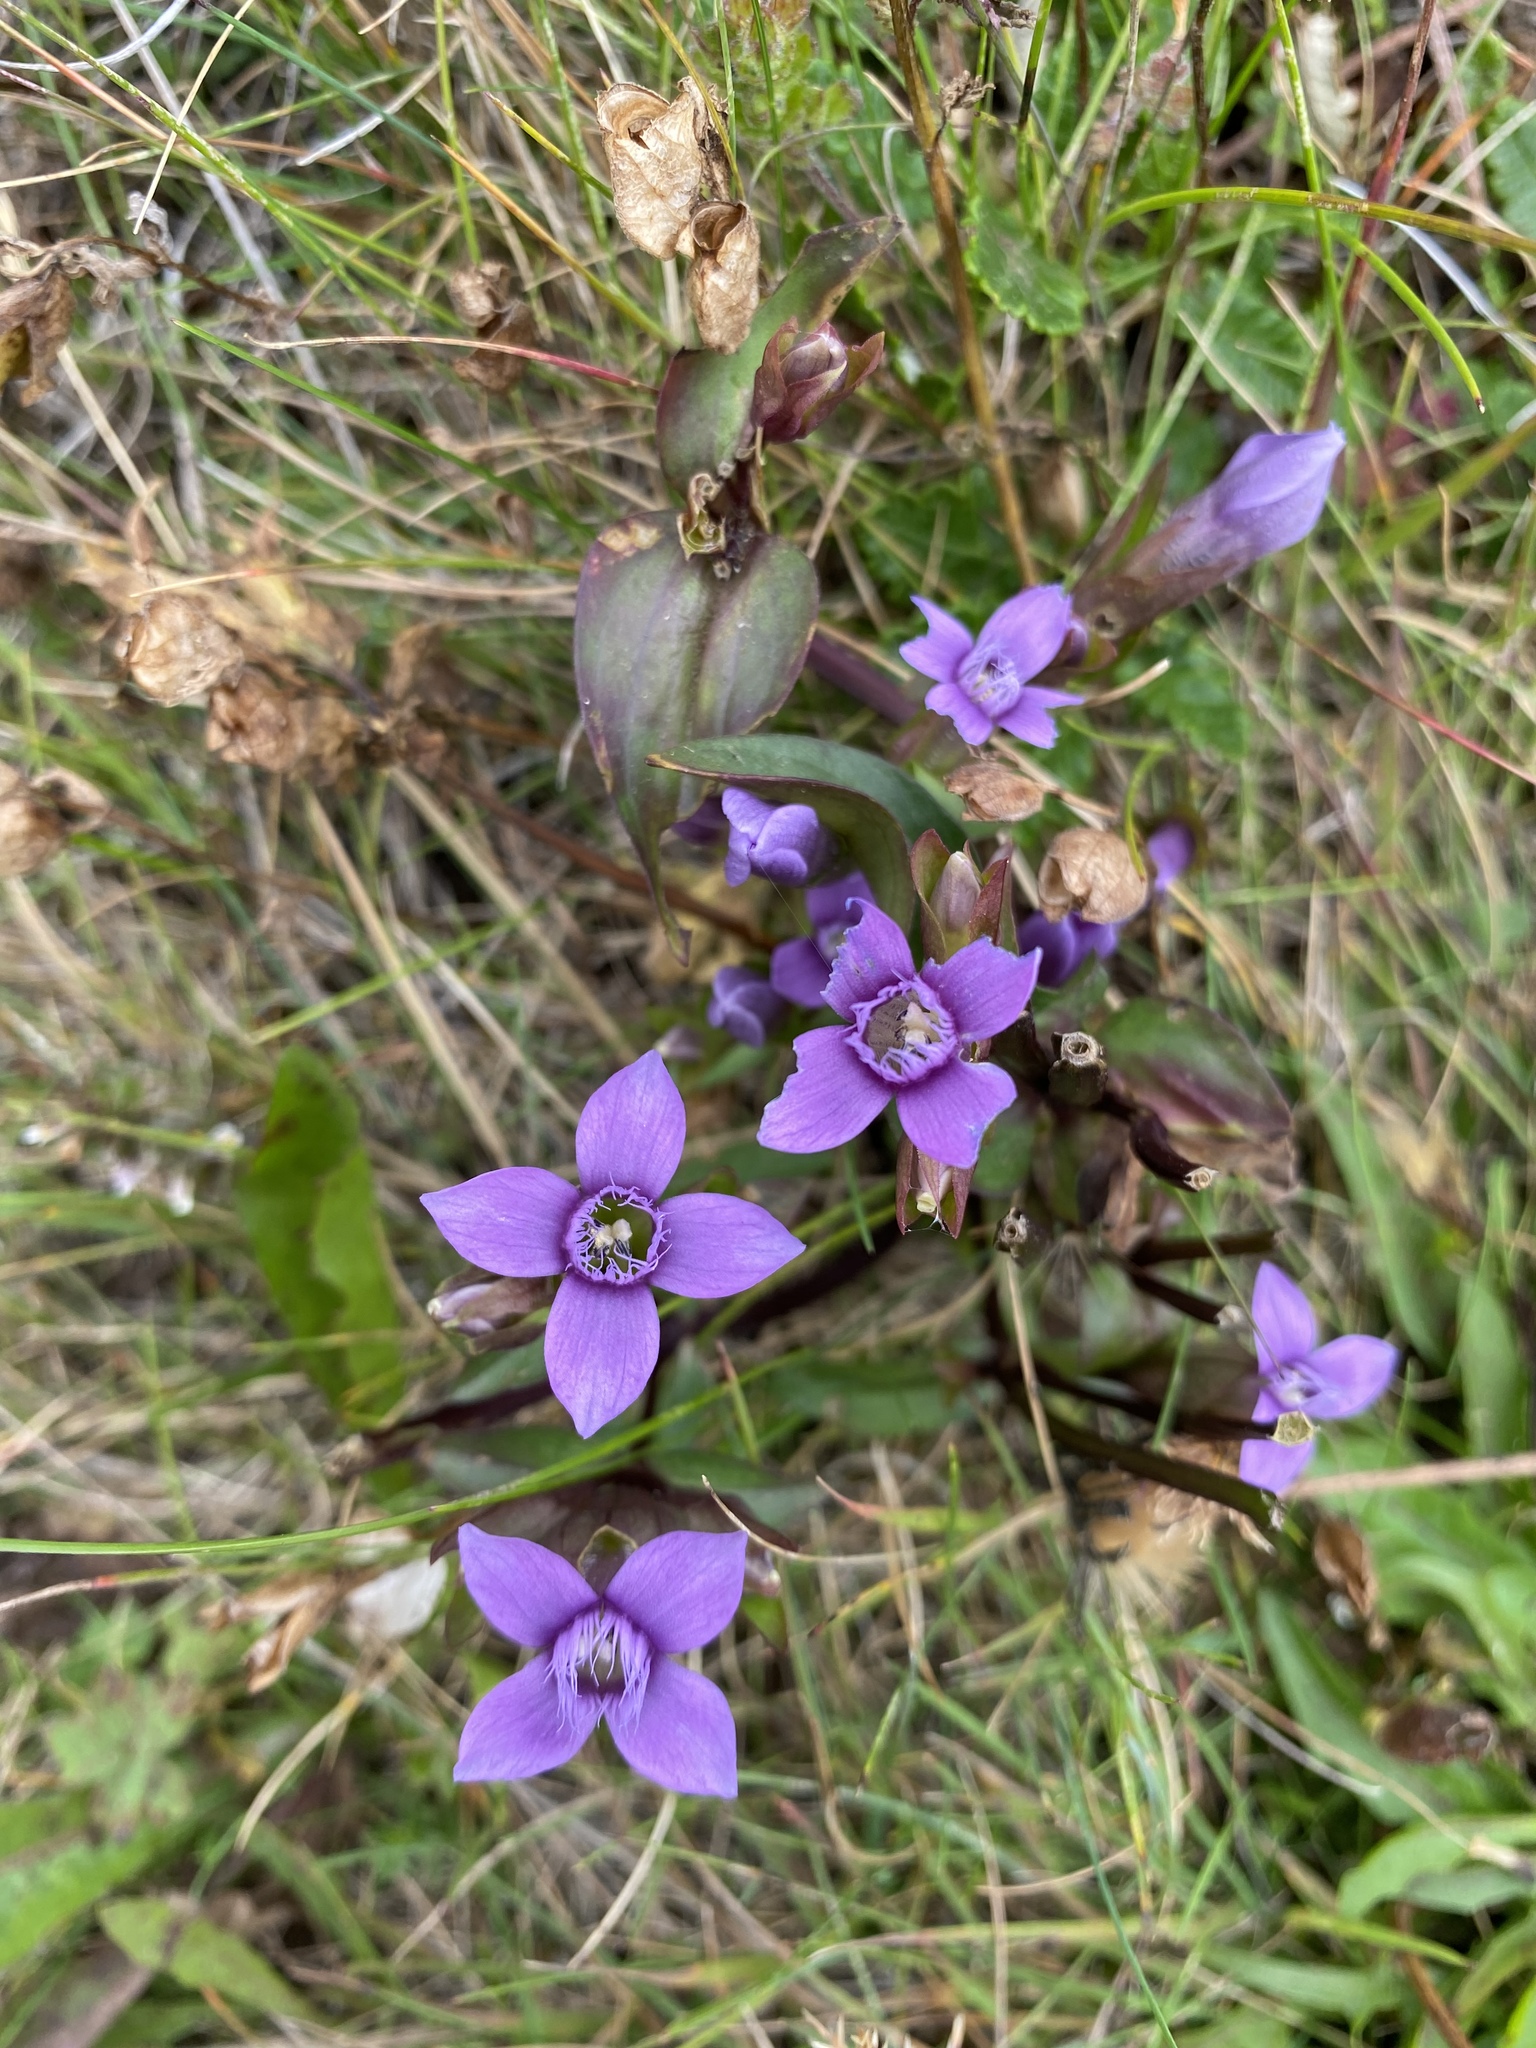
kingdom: Plantae
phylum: Tracheophyta
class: Magnoliopsida
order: Gentianales
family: Gentianaceae
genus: Gentianella
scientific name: Gentianella campestris
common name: Field gentian
